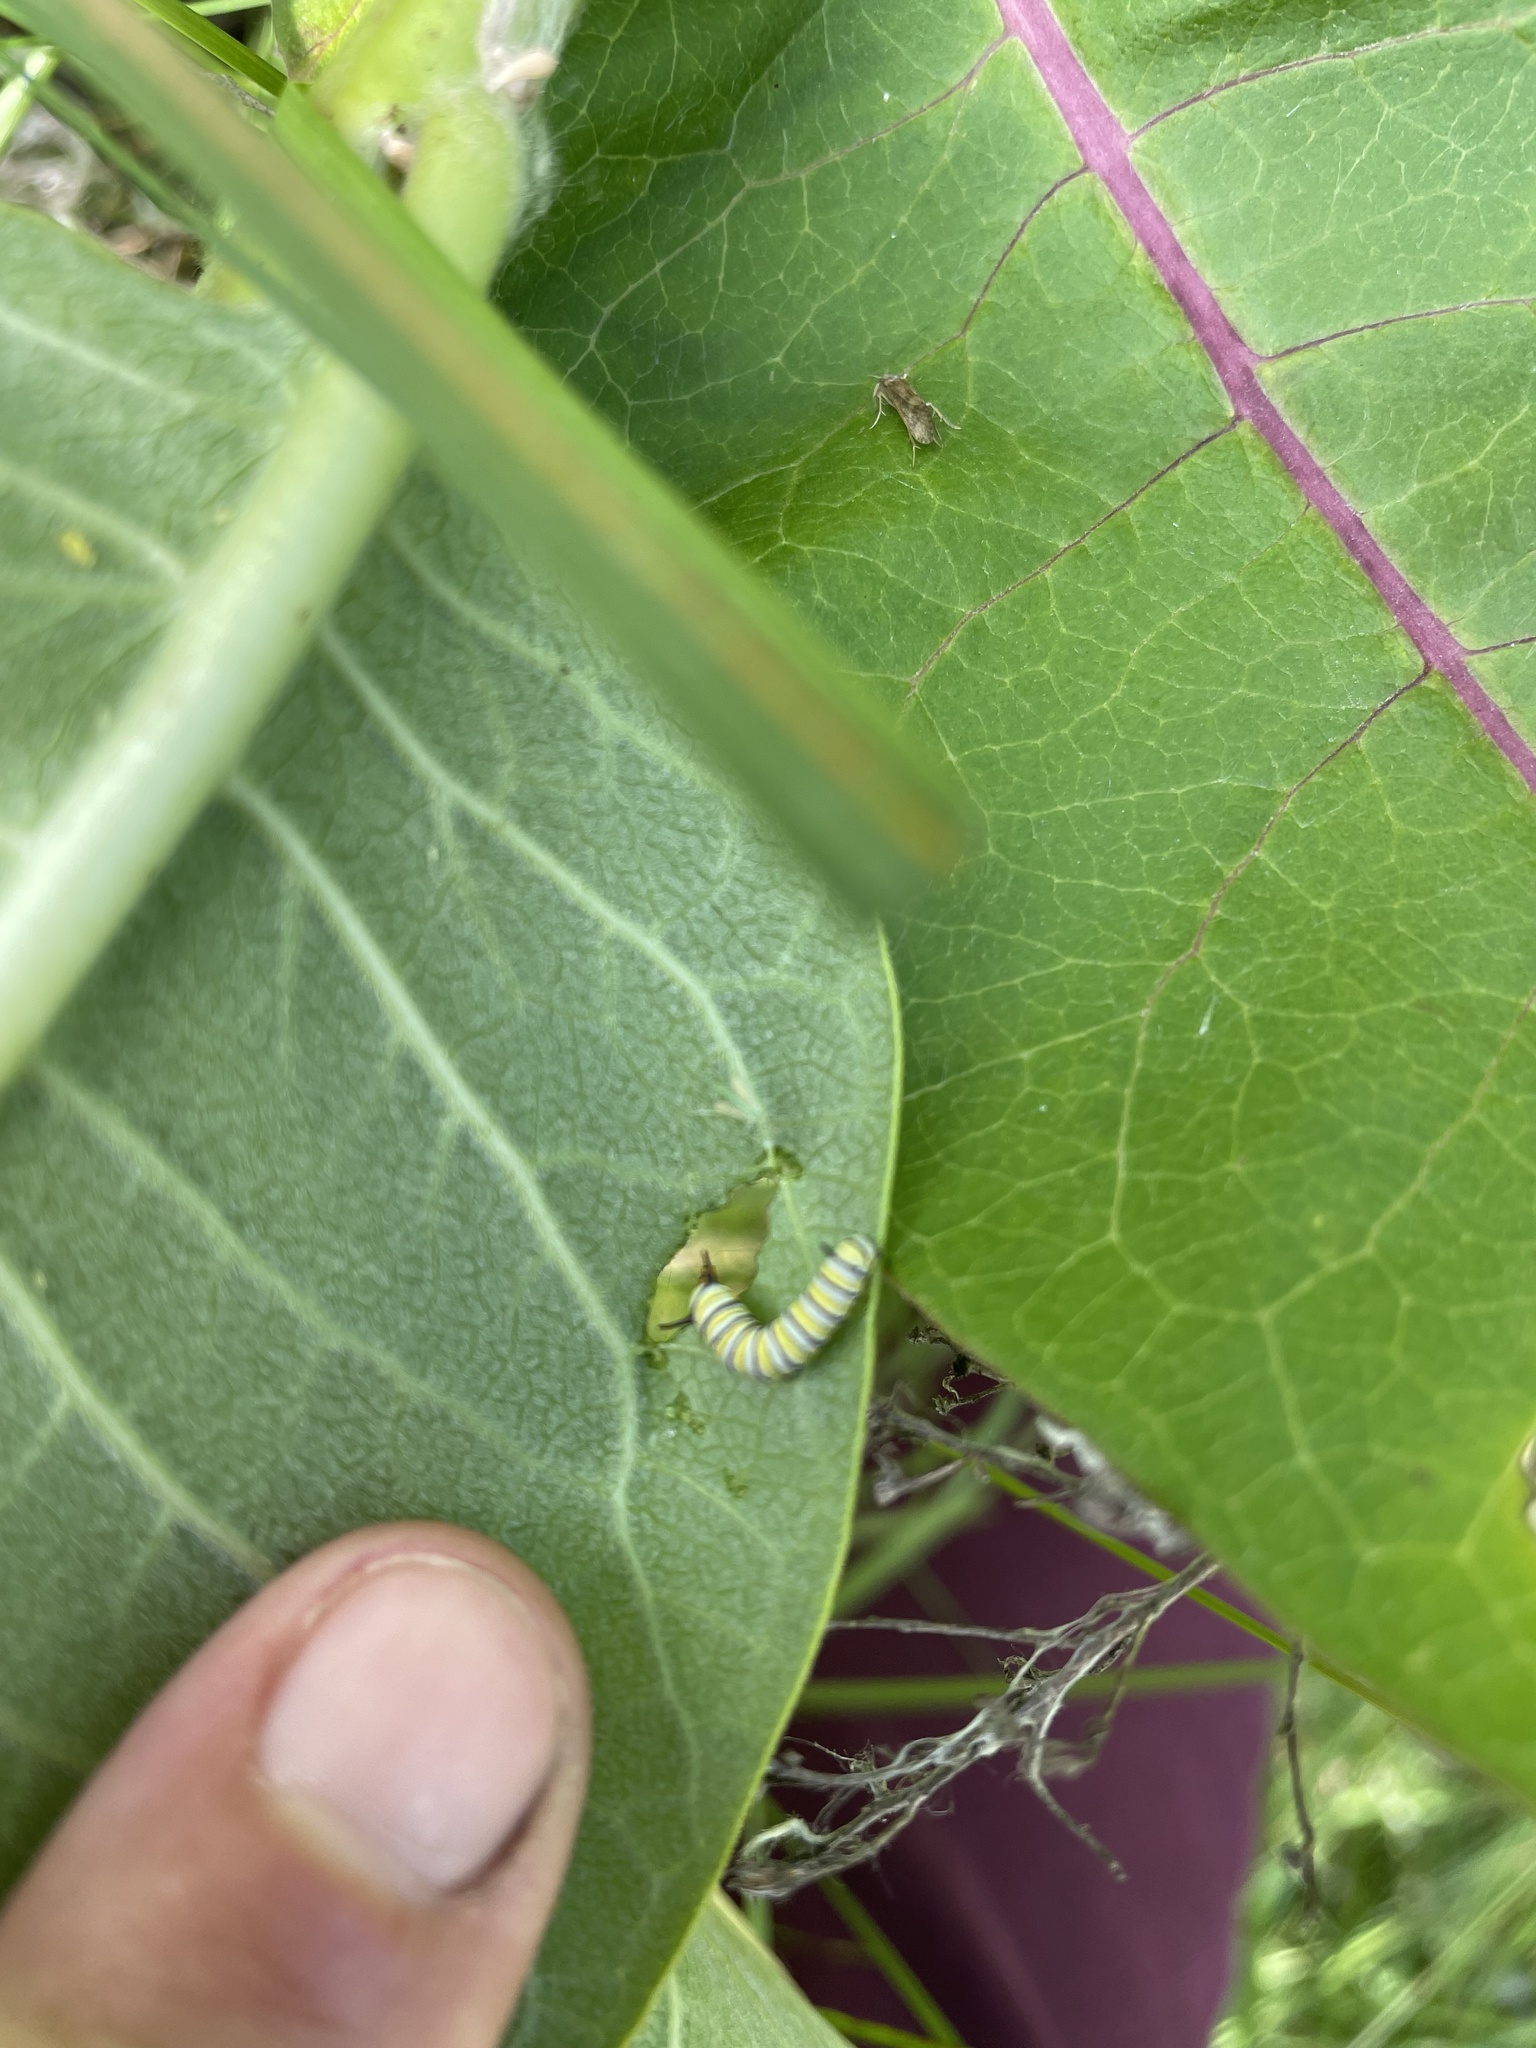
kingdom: Animalia
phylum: Arthropoda
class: Insecta
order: Lepidoptera
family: Nymphalidae
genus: Danaus
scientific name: Danaus plexippus
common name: Monarch
